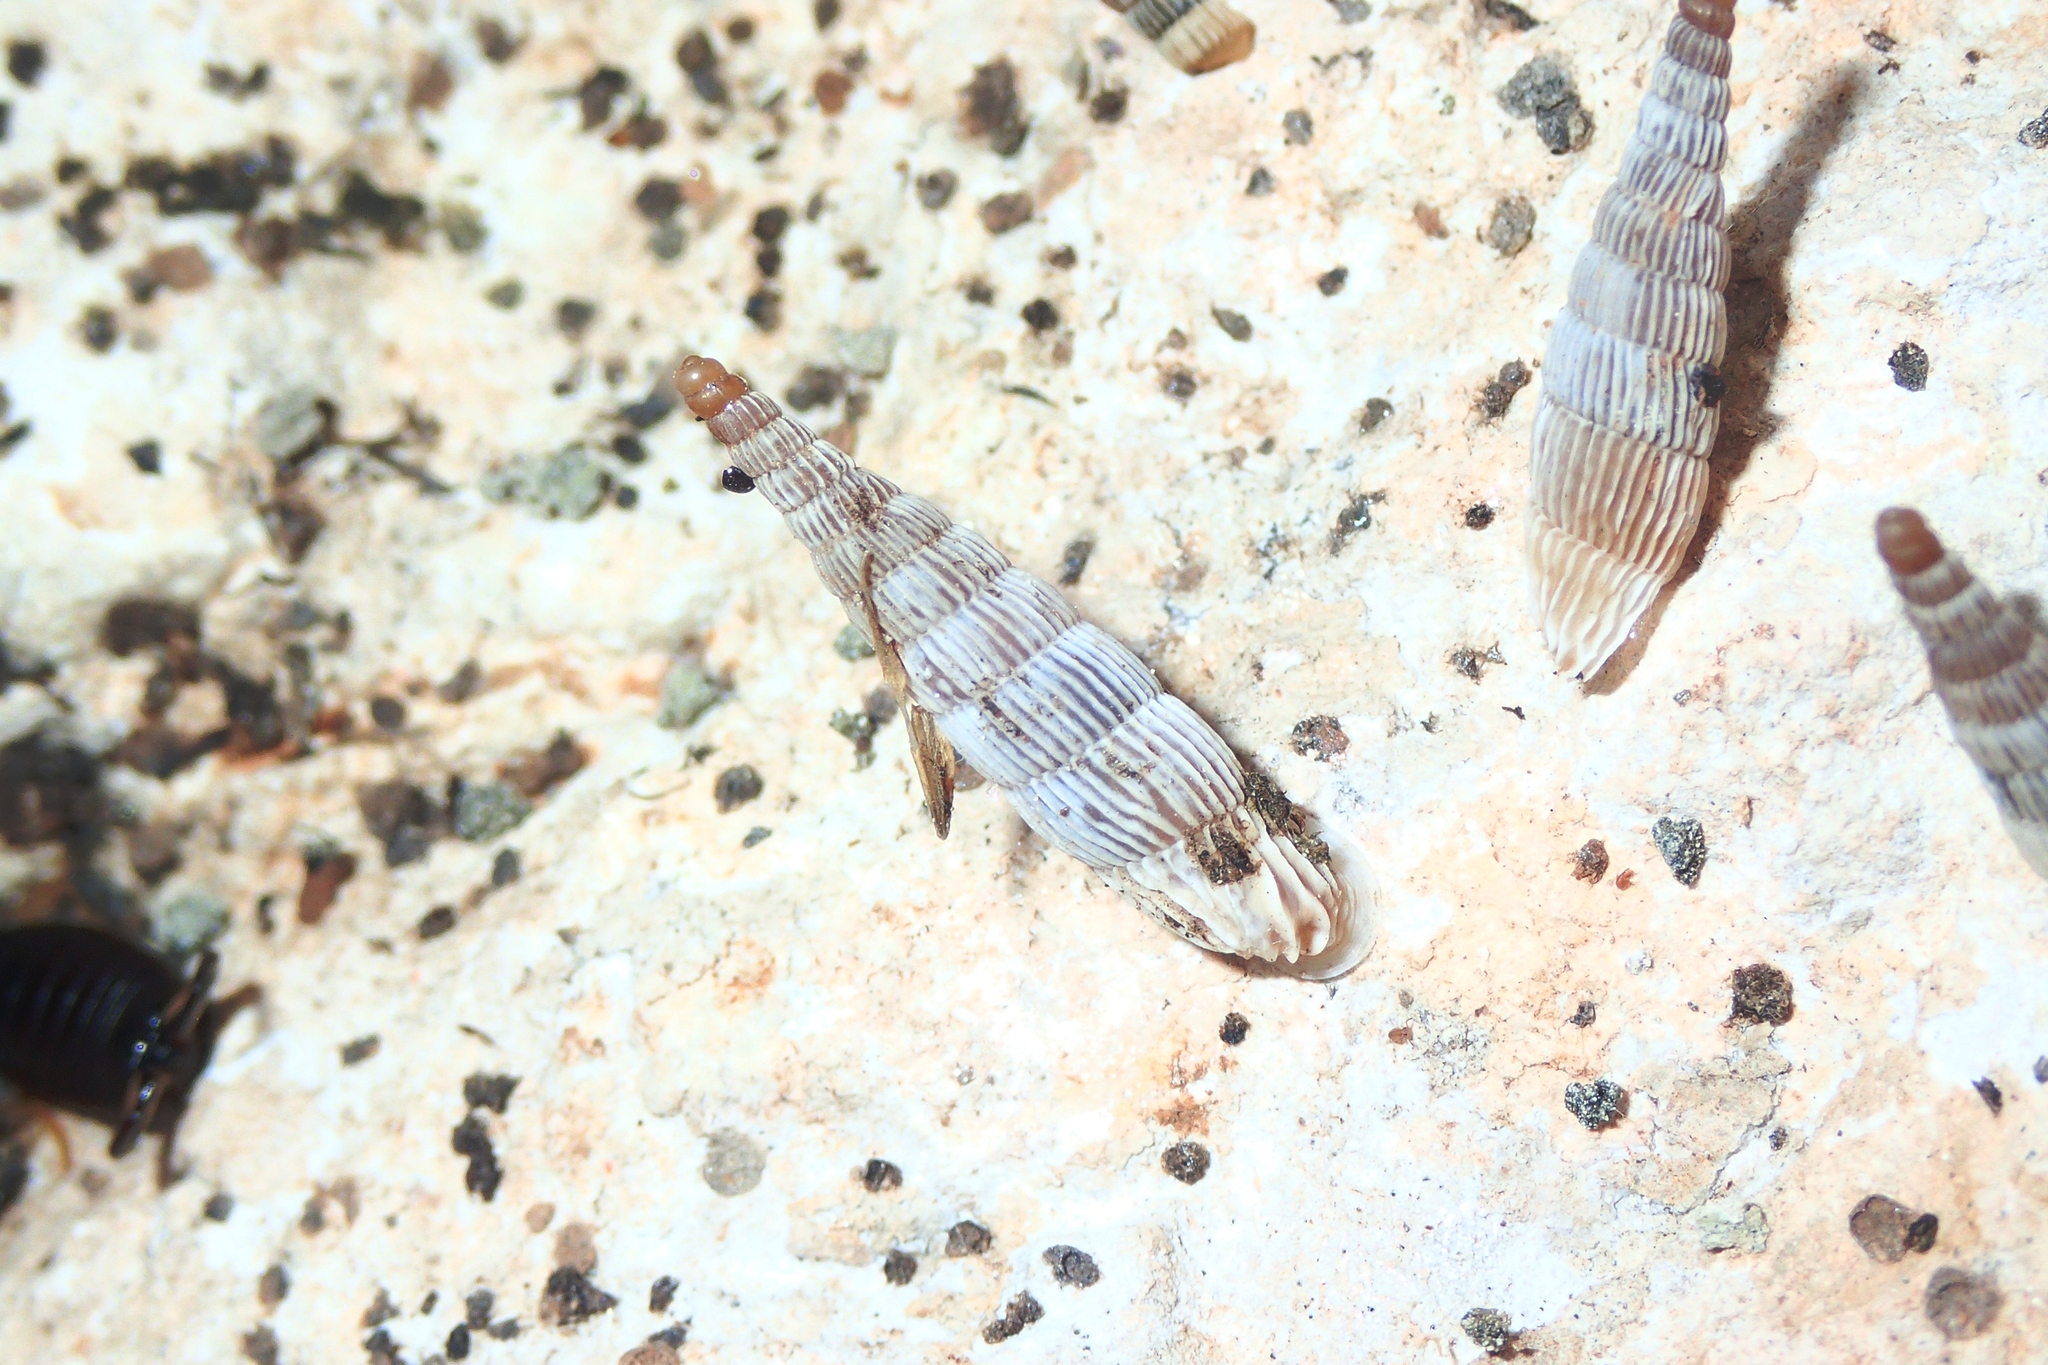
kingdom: Animalia
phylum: Mollusca
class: Gastropoda
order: Stylommatophora
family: Clausiliidae
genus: Albinaria
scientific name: Albinaria saxatilis
